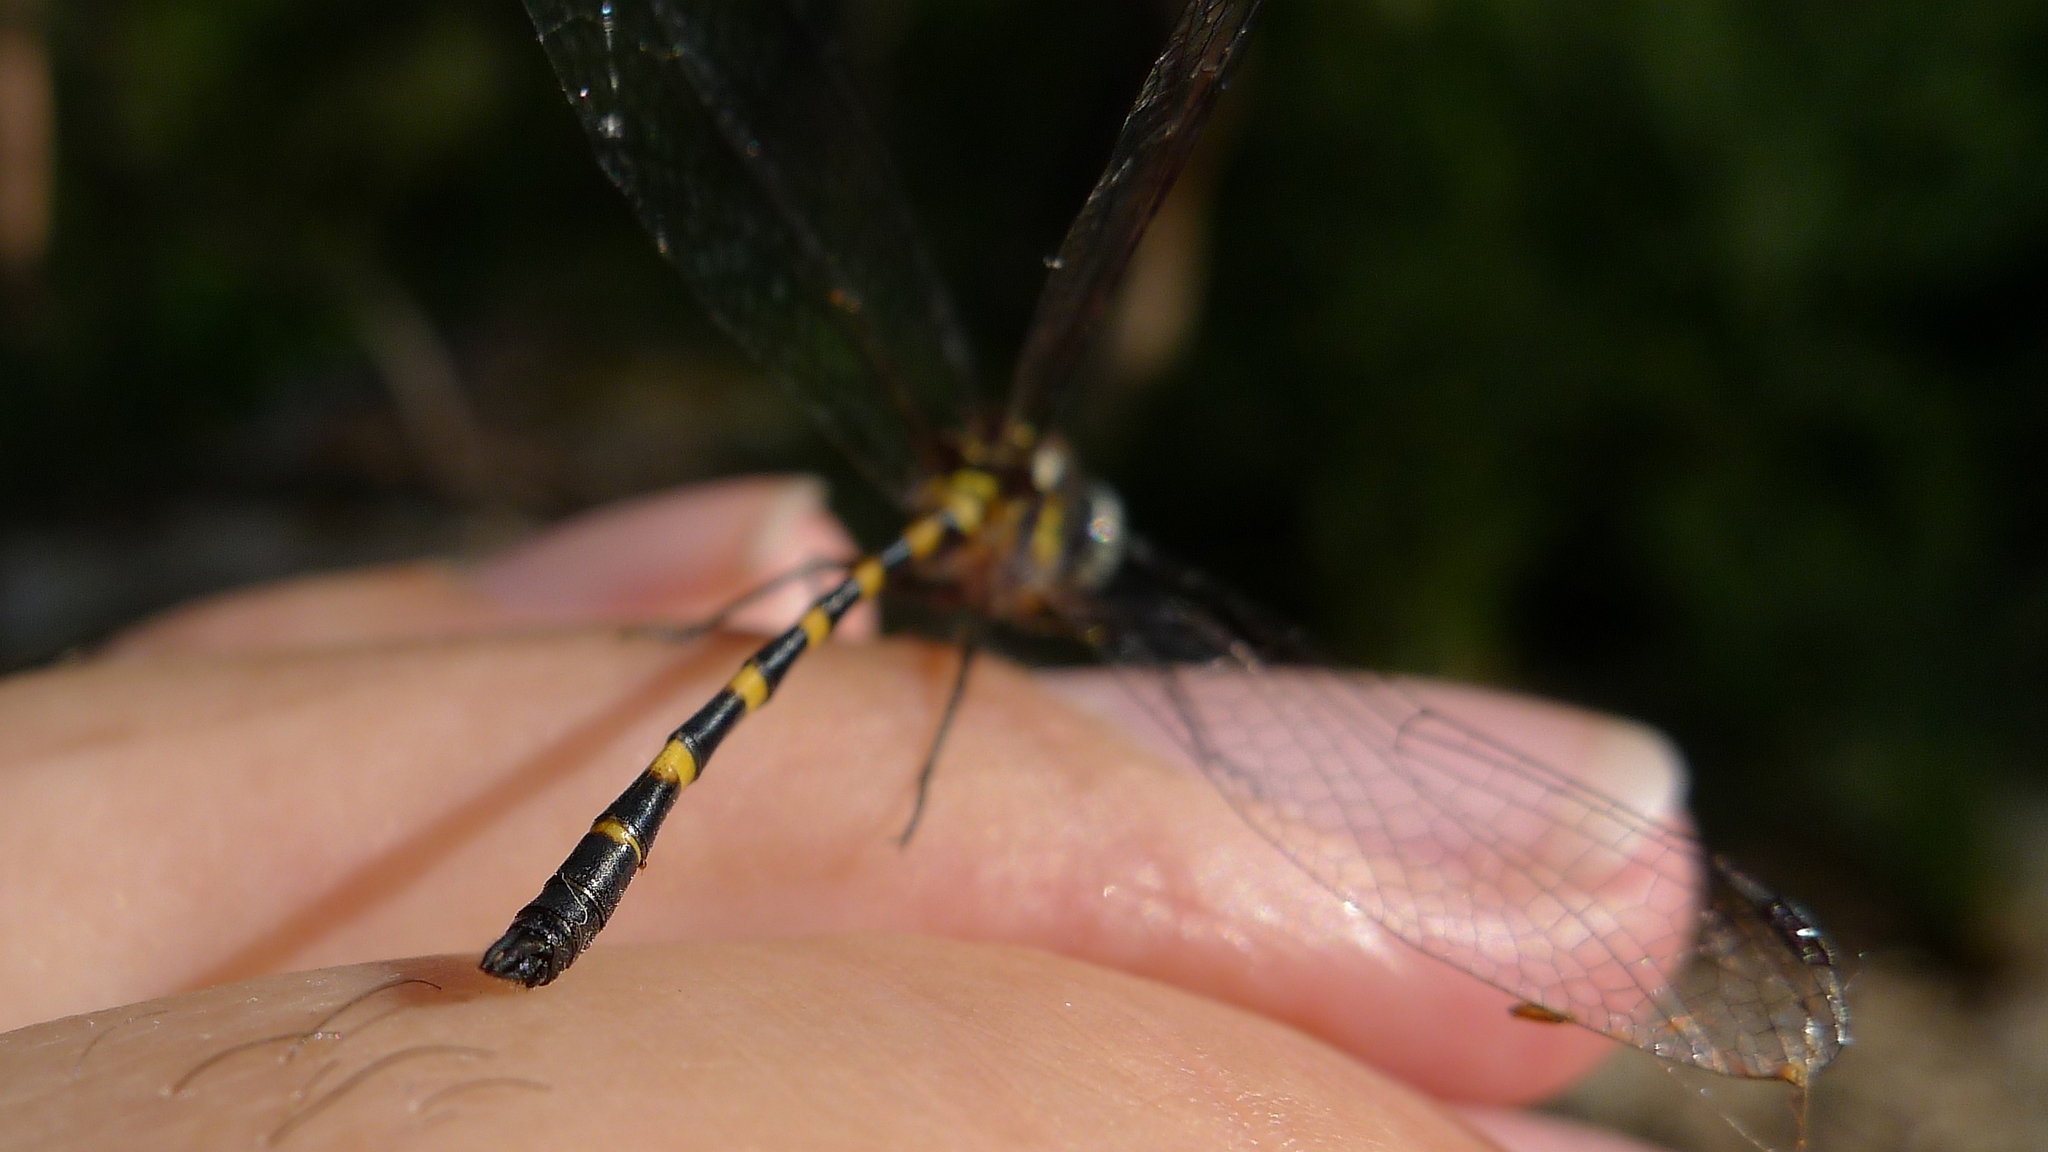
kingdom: Animalia
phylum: Arthropoda
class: Insecta
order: Odonata
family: Corduliidae
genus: Cordulephya
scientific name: Cordulephya pygmaea
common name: Common shutwing
